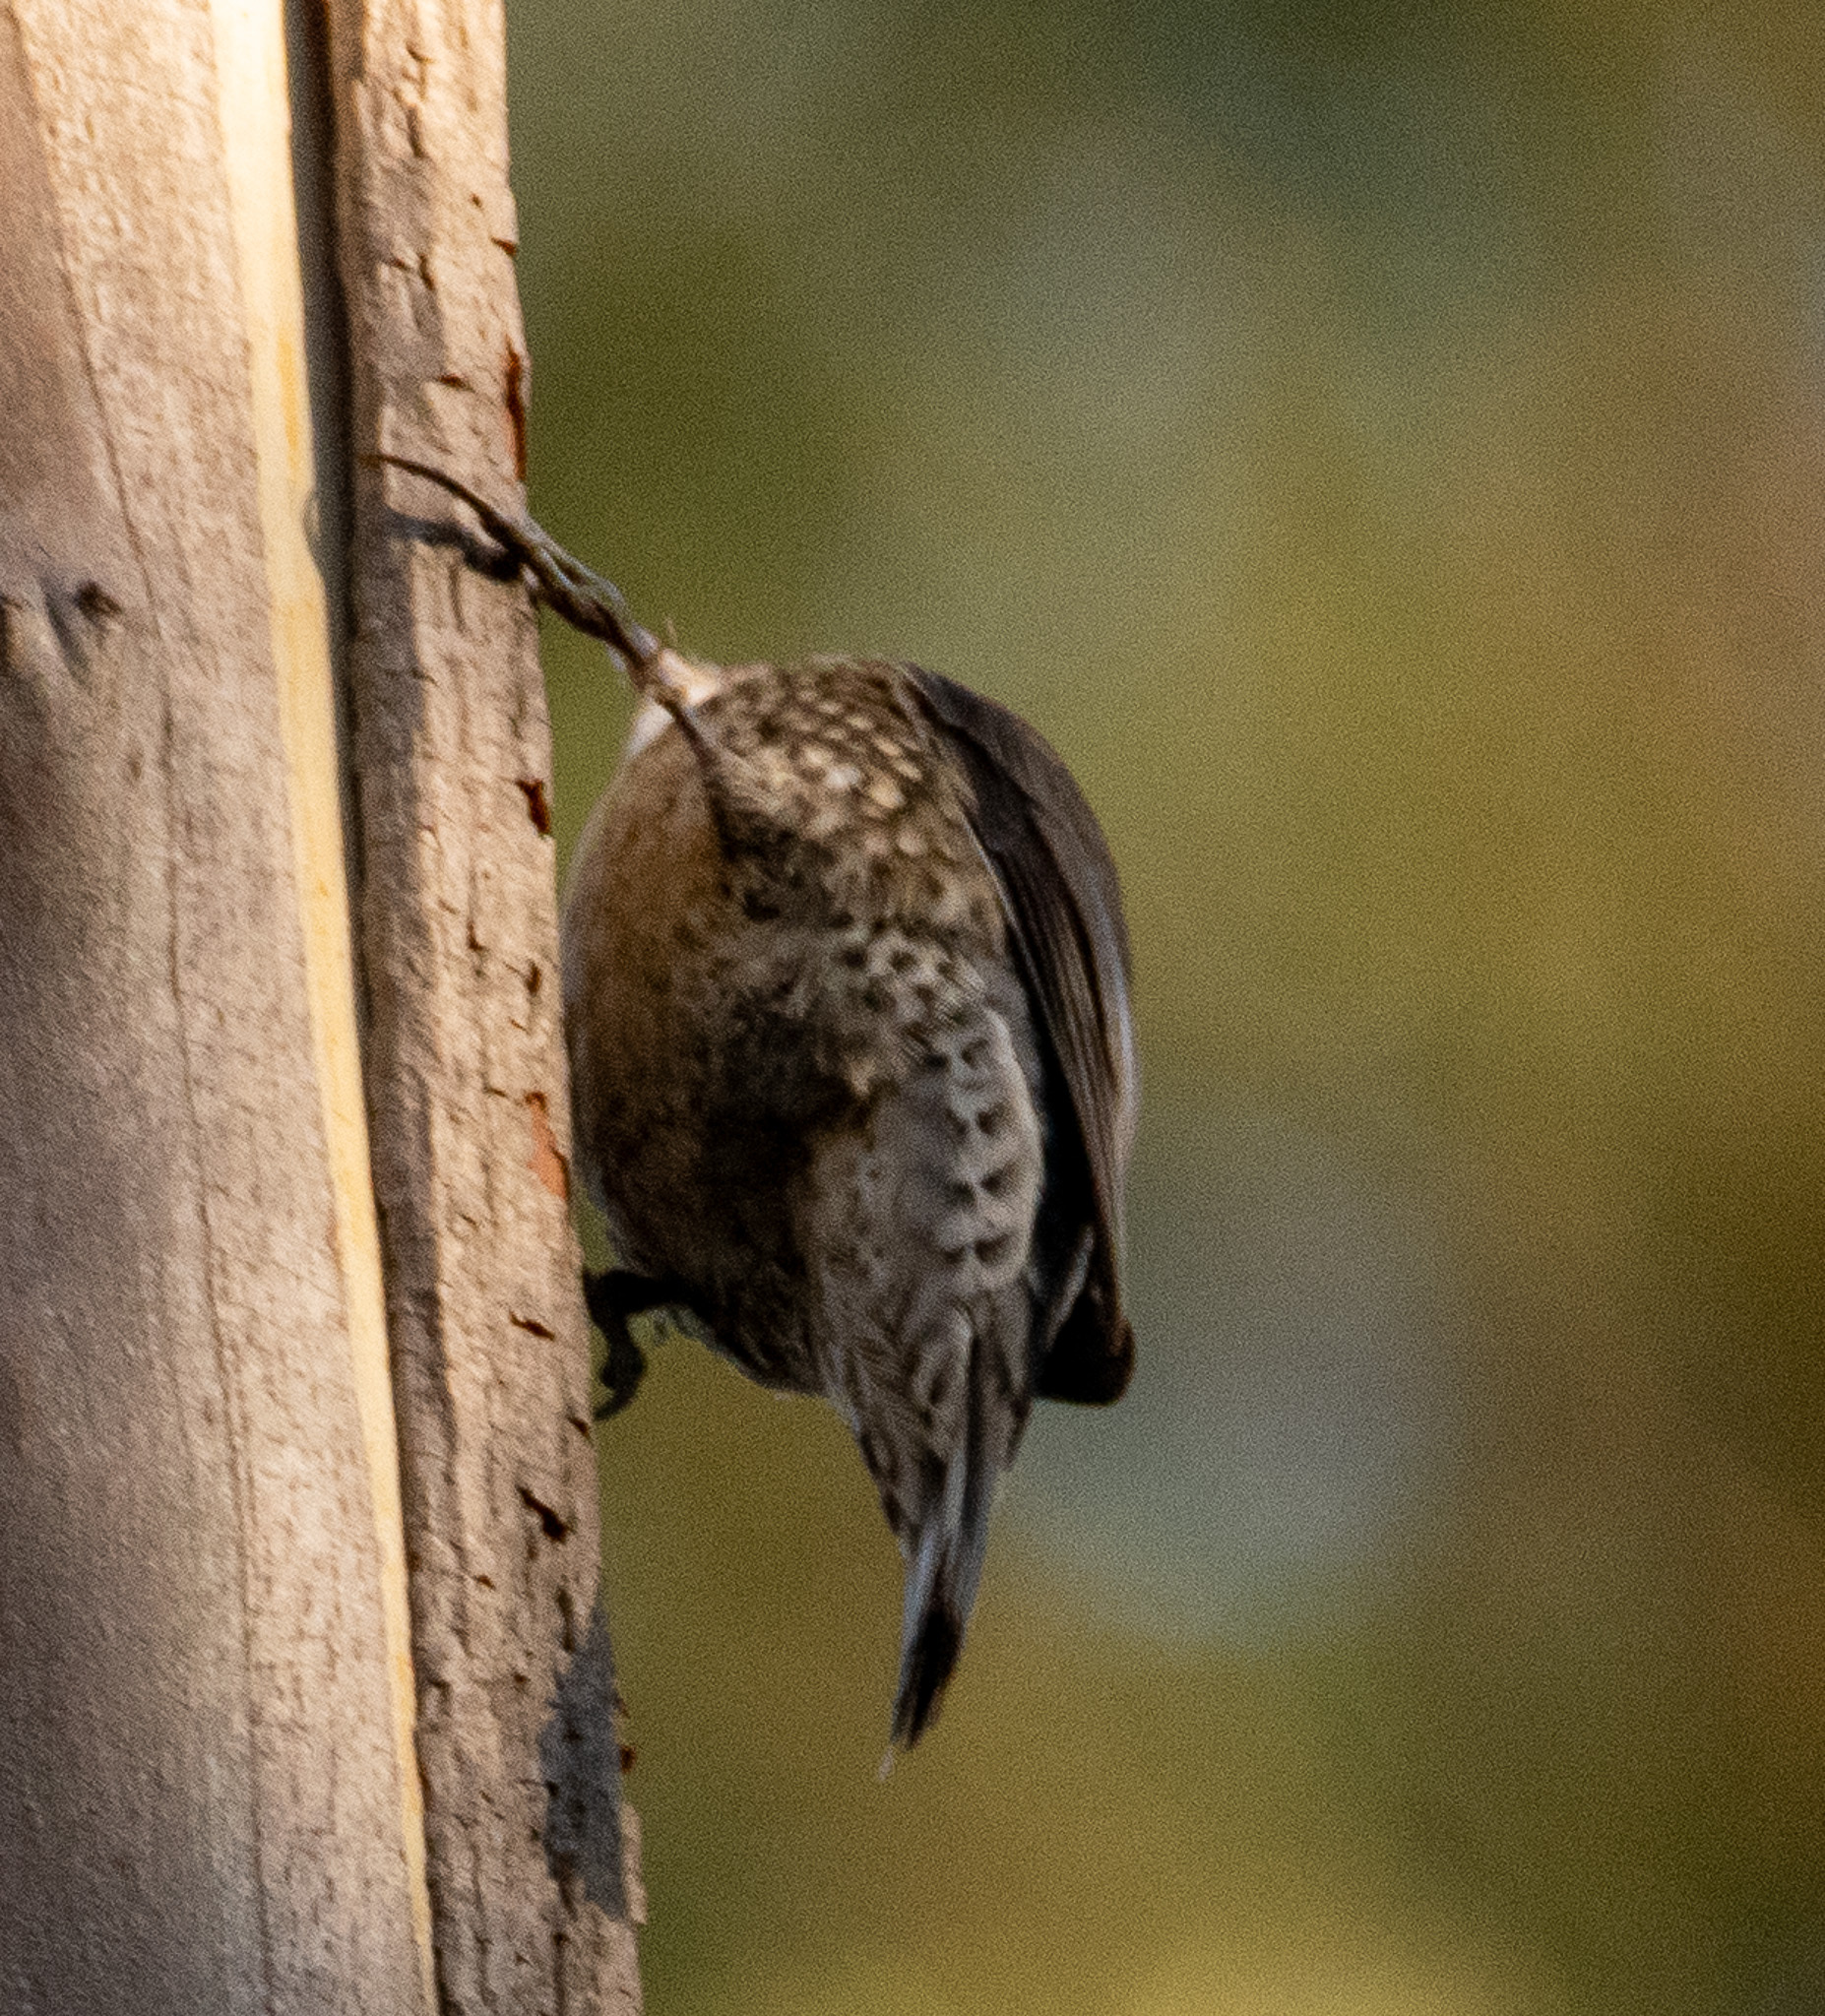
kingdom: Animalia
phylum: Chordata
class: Aves
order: Passeriformes
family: Climacteridae
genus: Cormobates
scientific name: Cormobates leucophaea
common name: White-throated treecreeper
